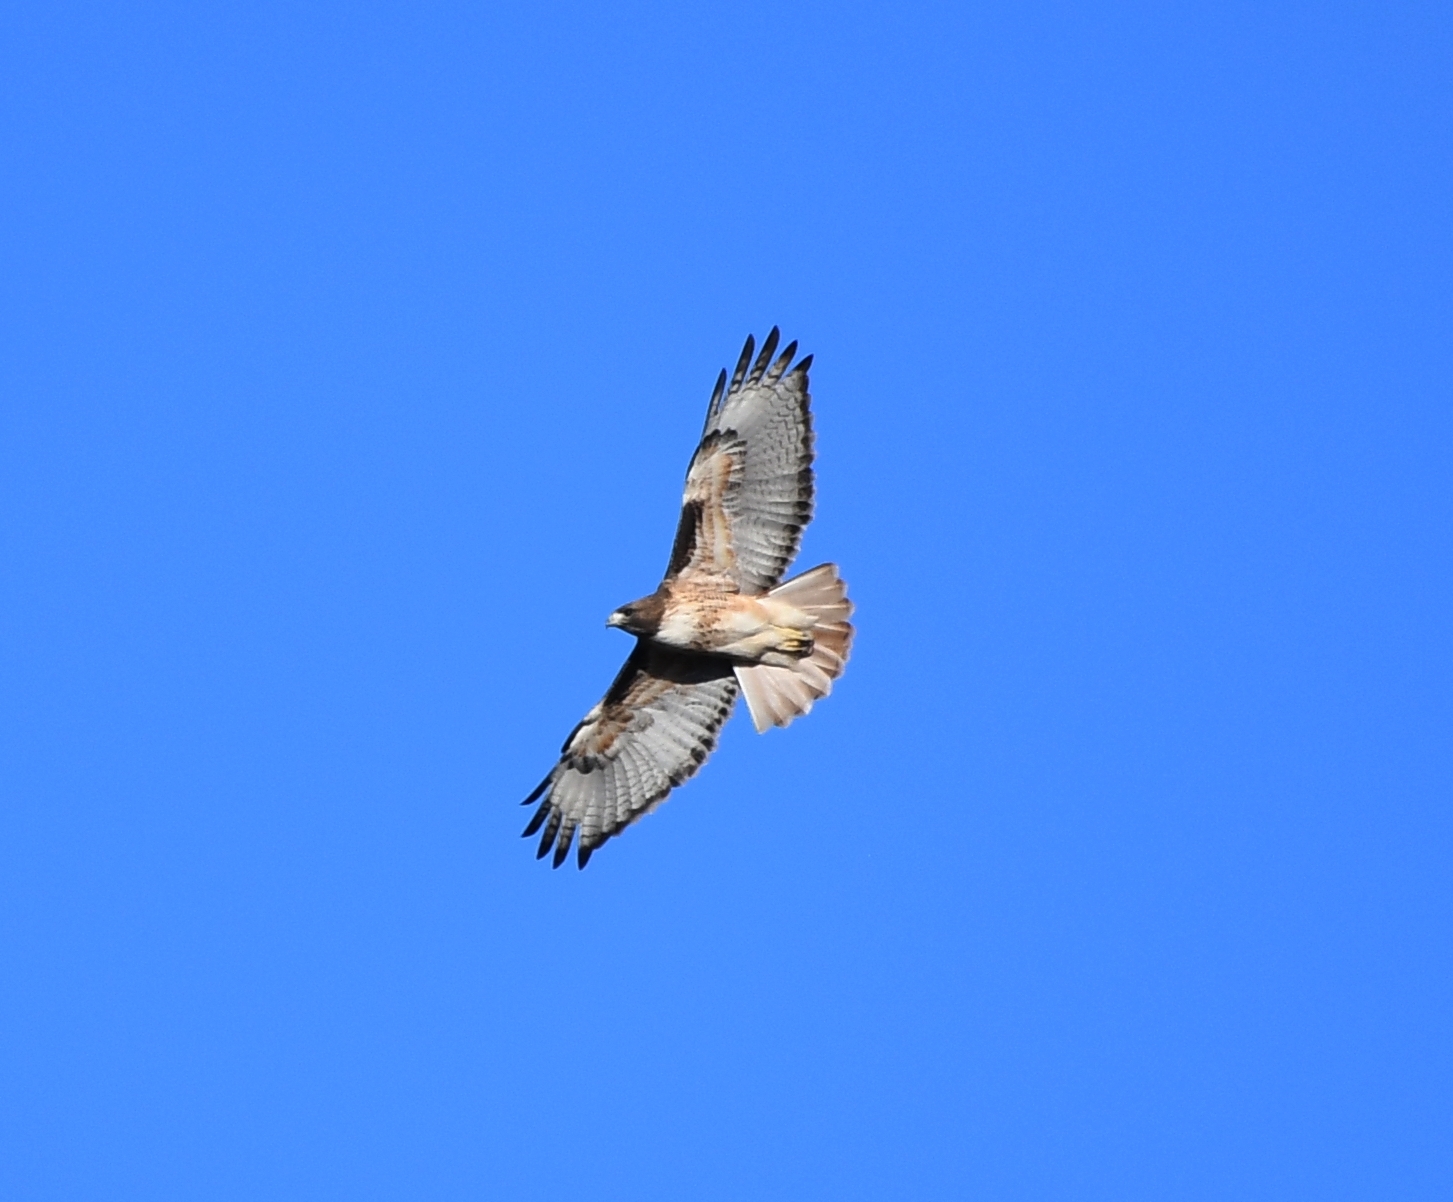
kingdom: Animalia
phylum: Chordata
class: Aves
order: Accipitriformes
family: Accipitridae
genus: Buteo
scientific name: Buteo jamaicensis
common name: Red-tailed hawk
